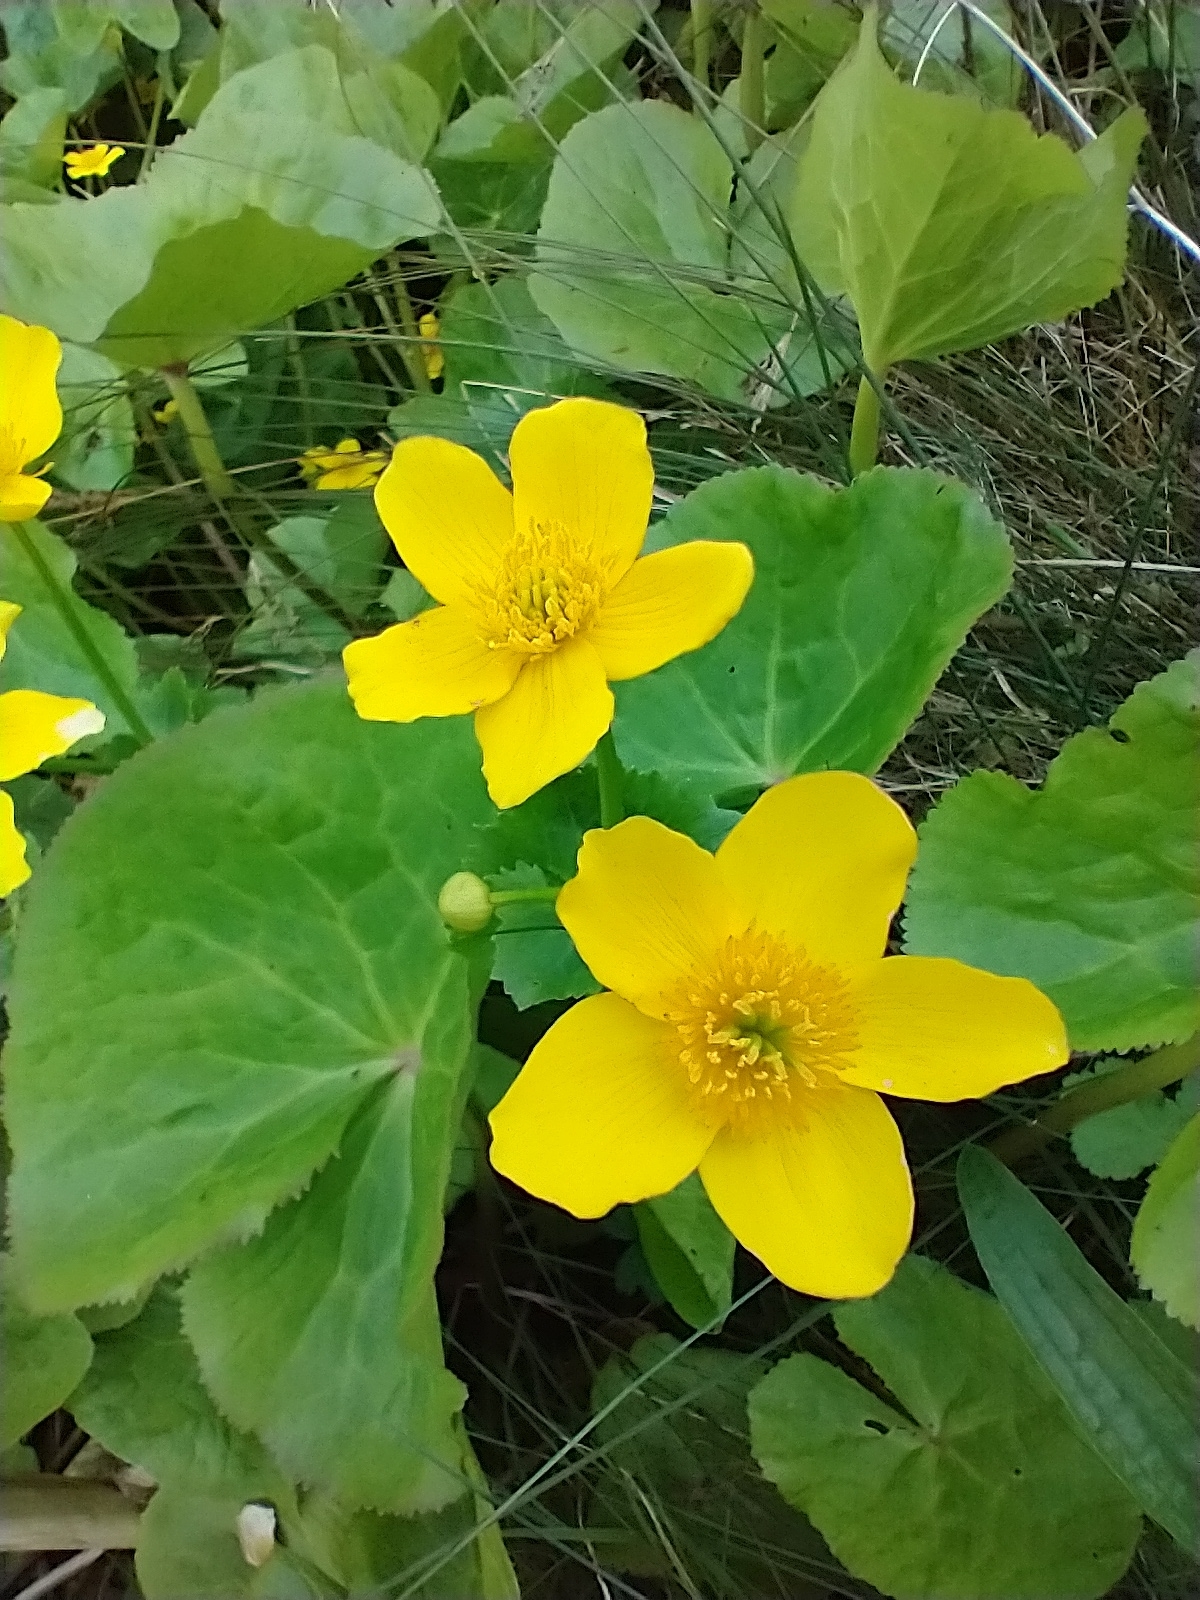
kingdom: Plantae
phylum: Tracheophyta
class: Magnoliopsida
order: Ranunculales
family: Ranunculaceae
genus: Caltha
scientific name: Caltha palustris
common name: Marsh marigold
